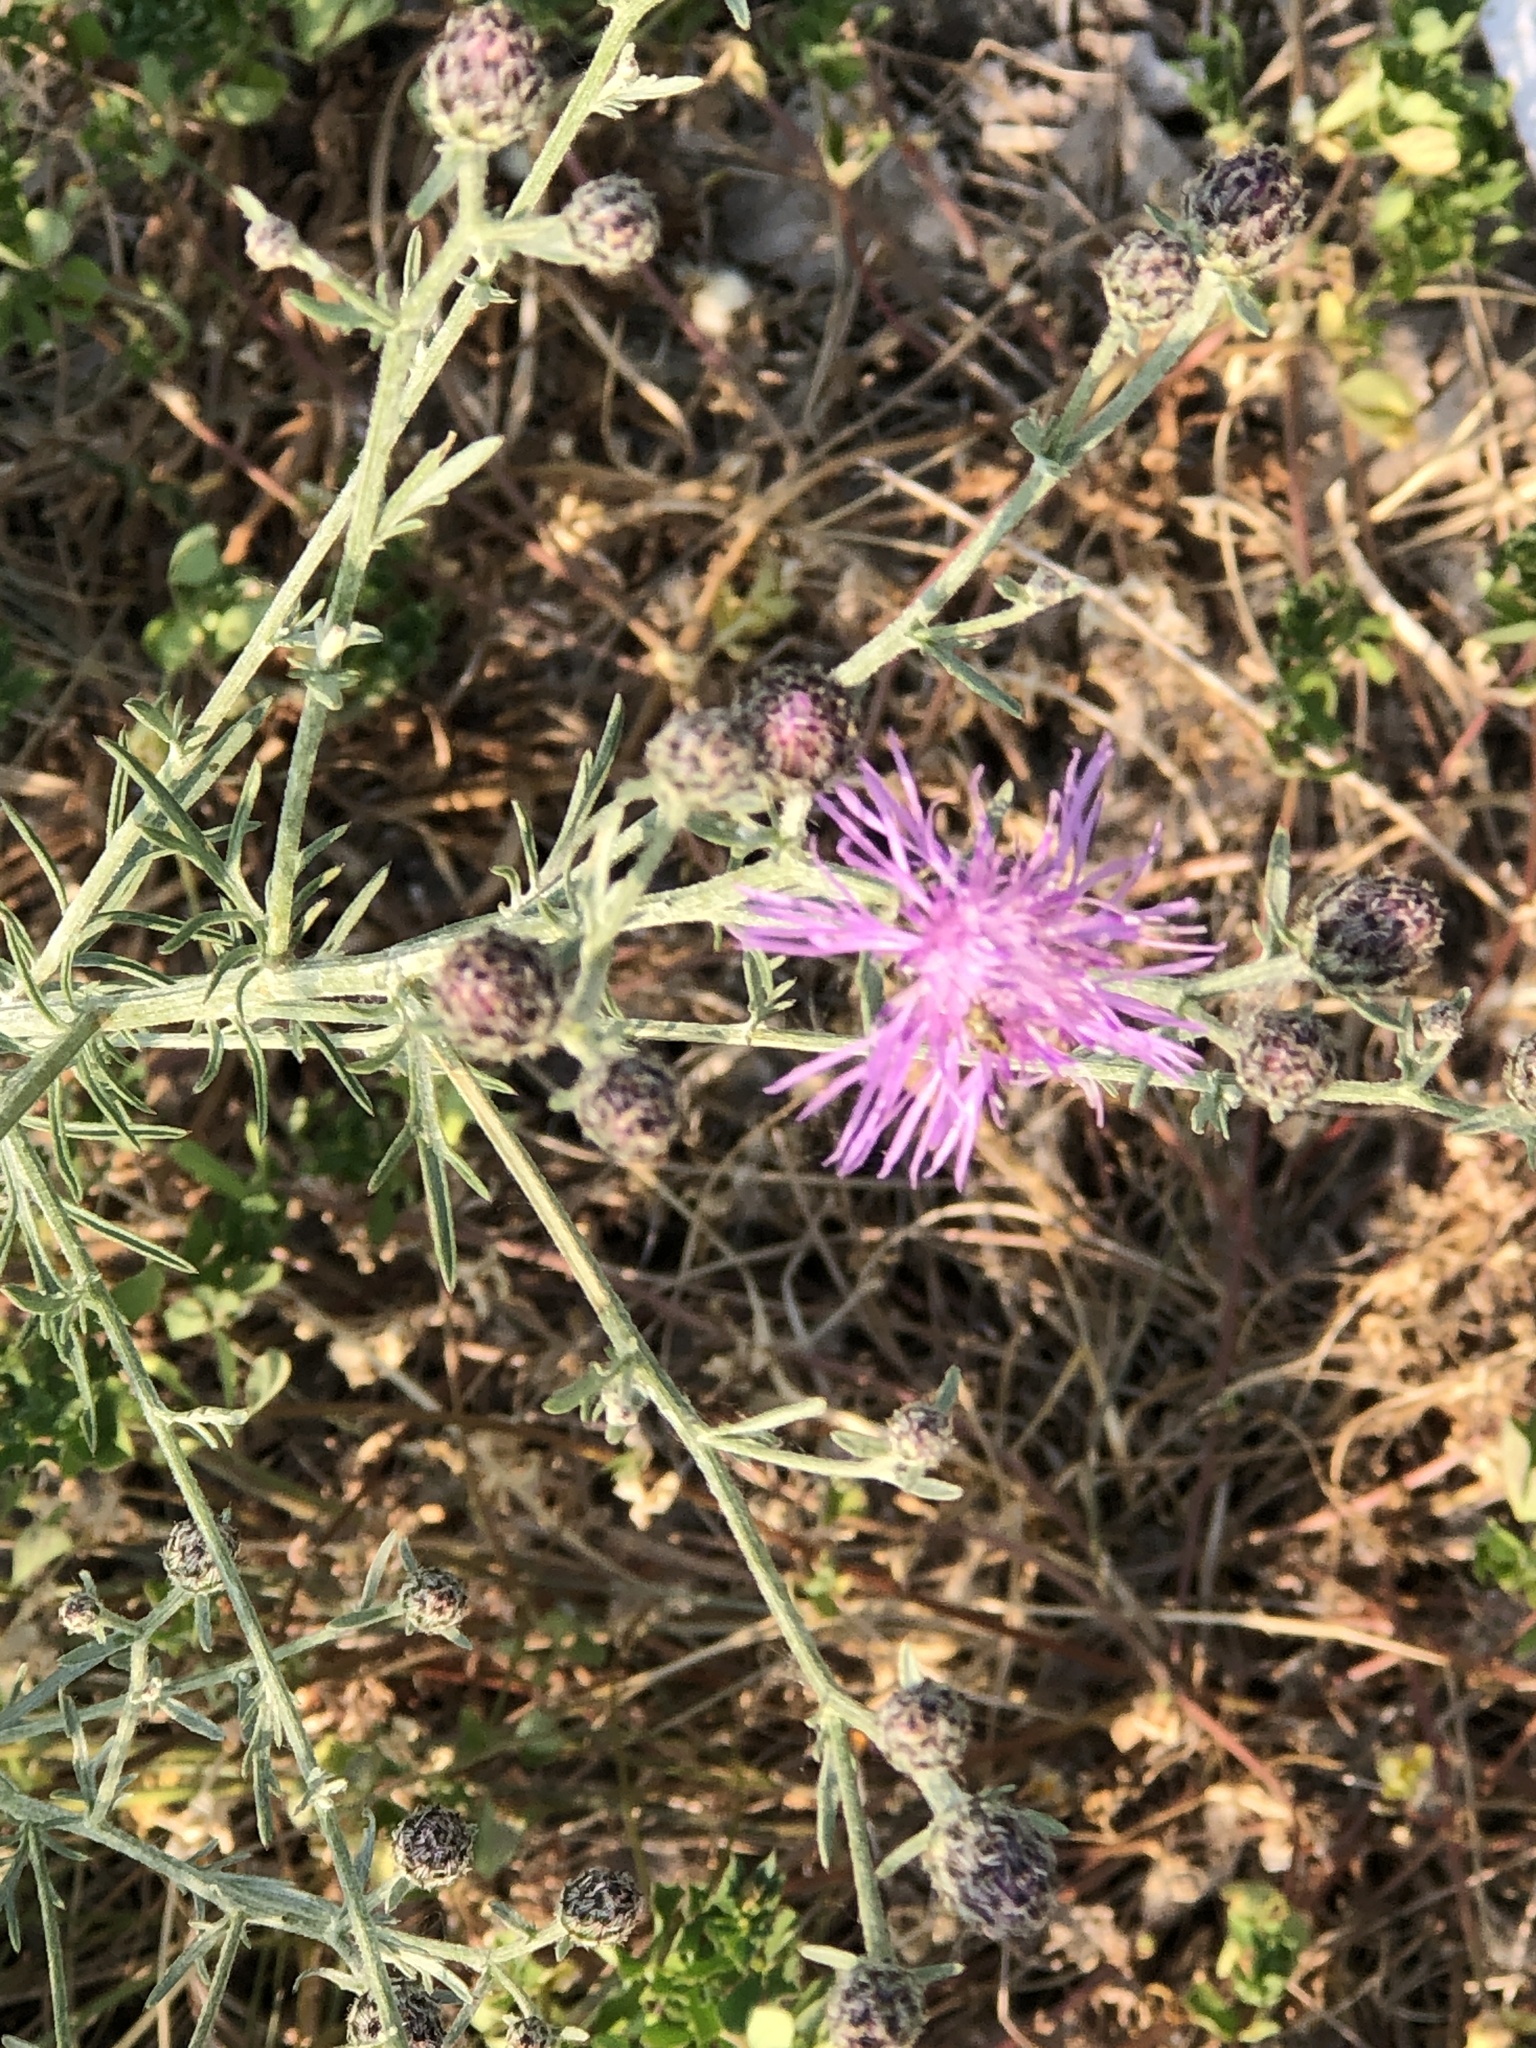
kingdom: Plantae
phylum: Tracheophyta
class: Magnoliopsida
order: Asterales
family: Asteraceae
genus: Centaurea
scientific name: Centaurea stoebe
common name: Spotted knapweed
